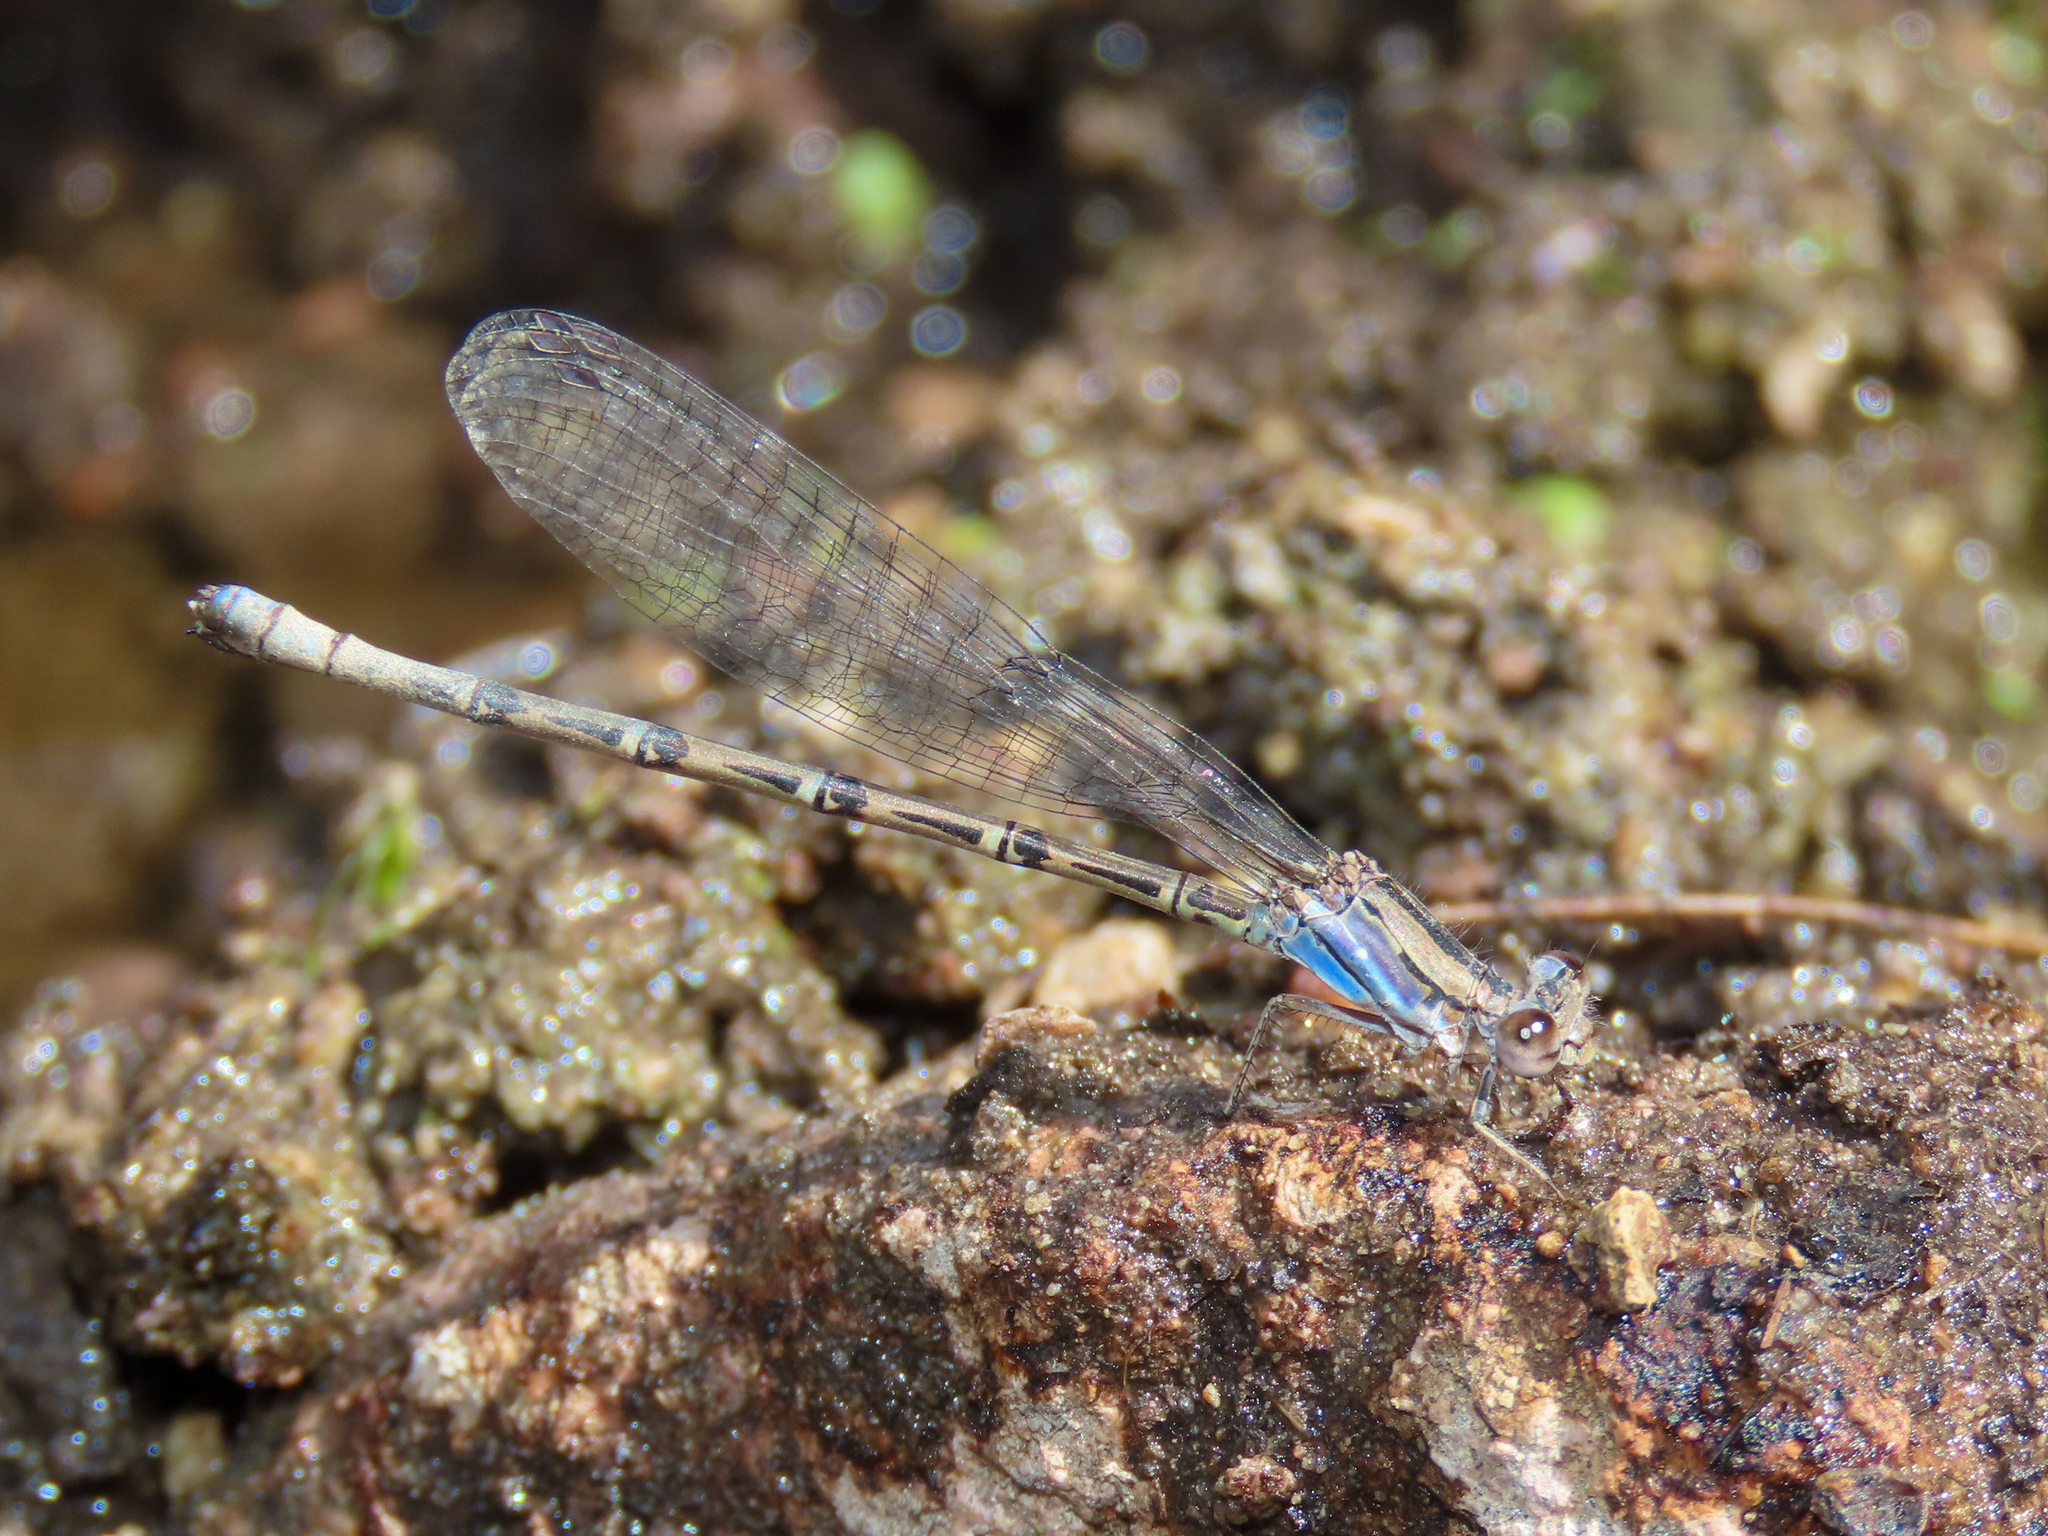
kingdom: Animalia
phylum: Arthropoda
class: Insecta
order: Odonata
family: Coenagrionidae
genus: Argia
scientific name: Argia extranea
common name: Spine-tipped dancer
